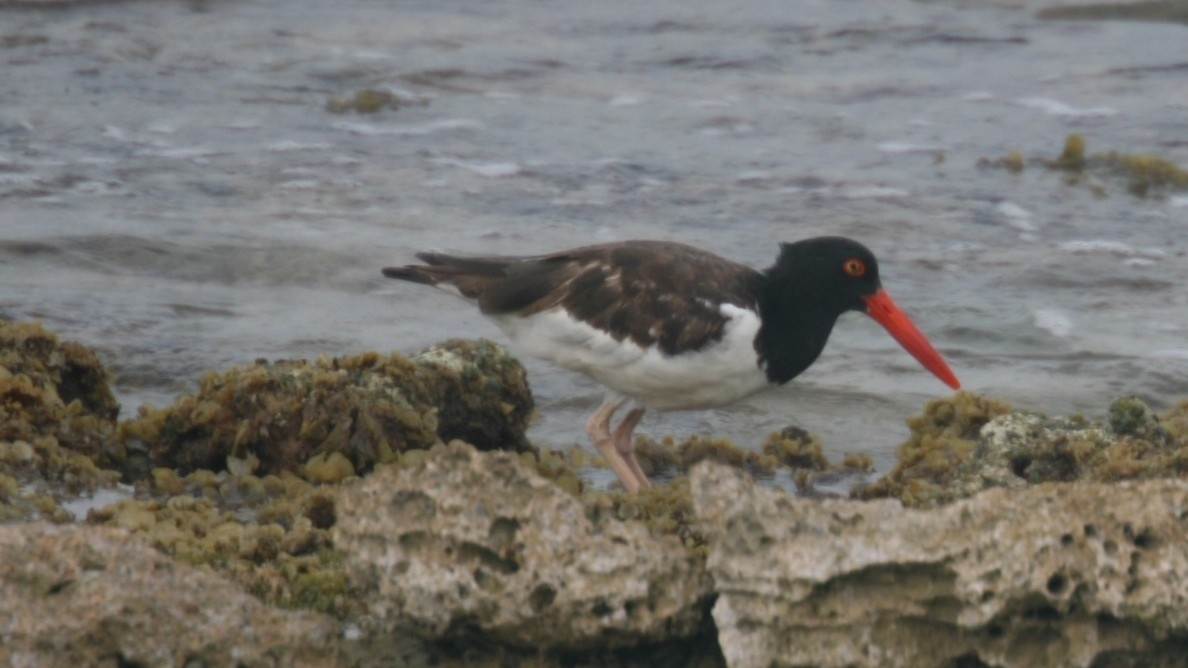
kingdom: Animalia
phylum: Chordata
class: Aves
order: Charadriiformes
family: Haematopodidae
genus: Haematopus
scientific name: Haematopus palliatus
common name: American oystercatcher
